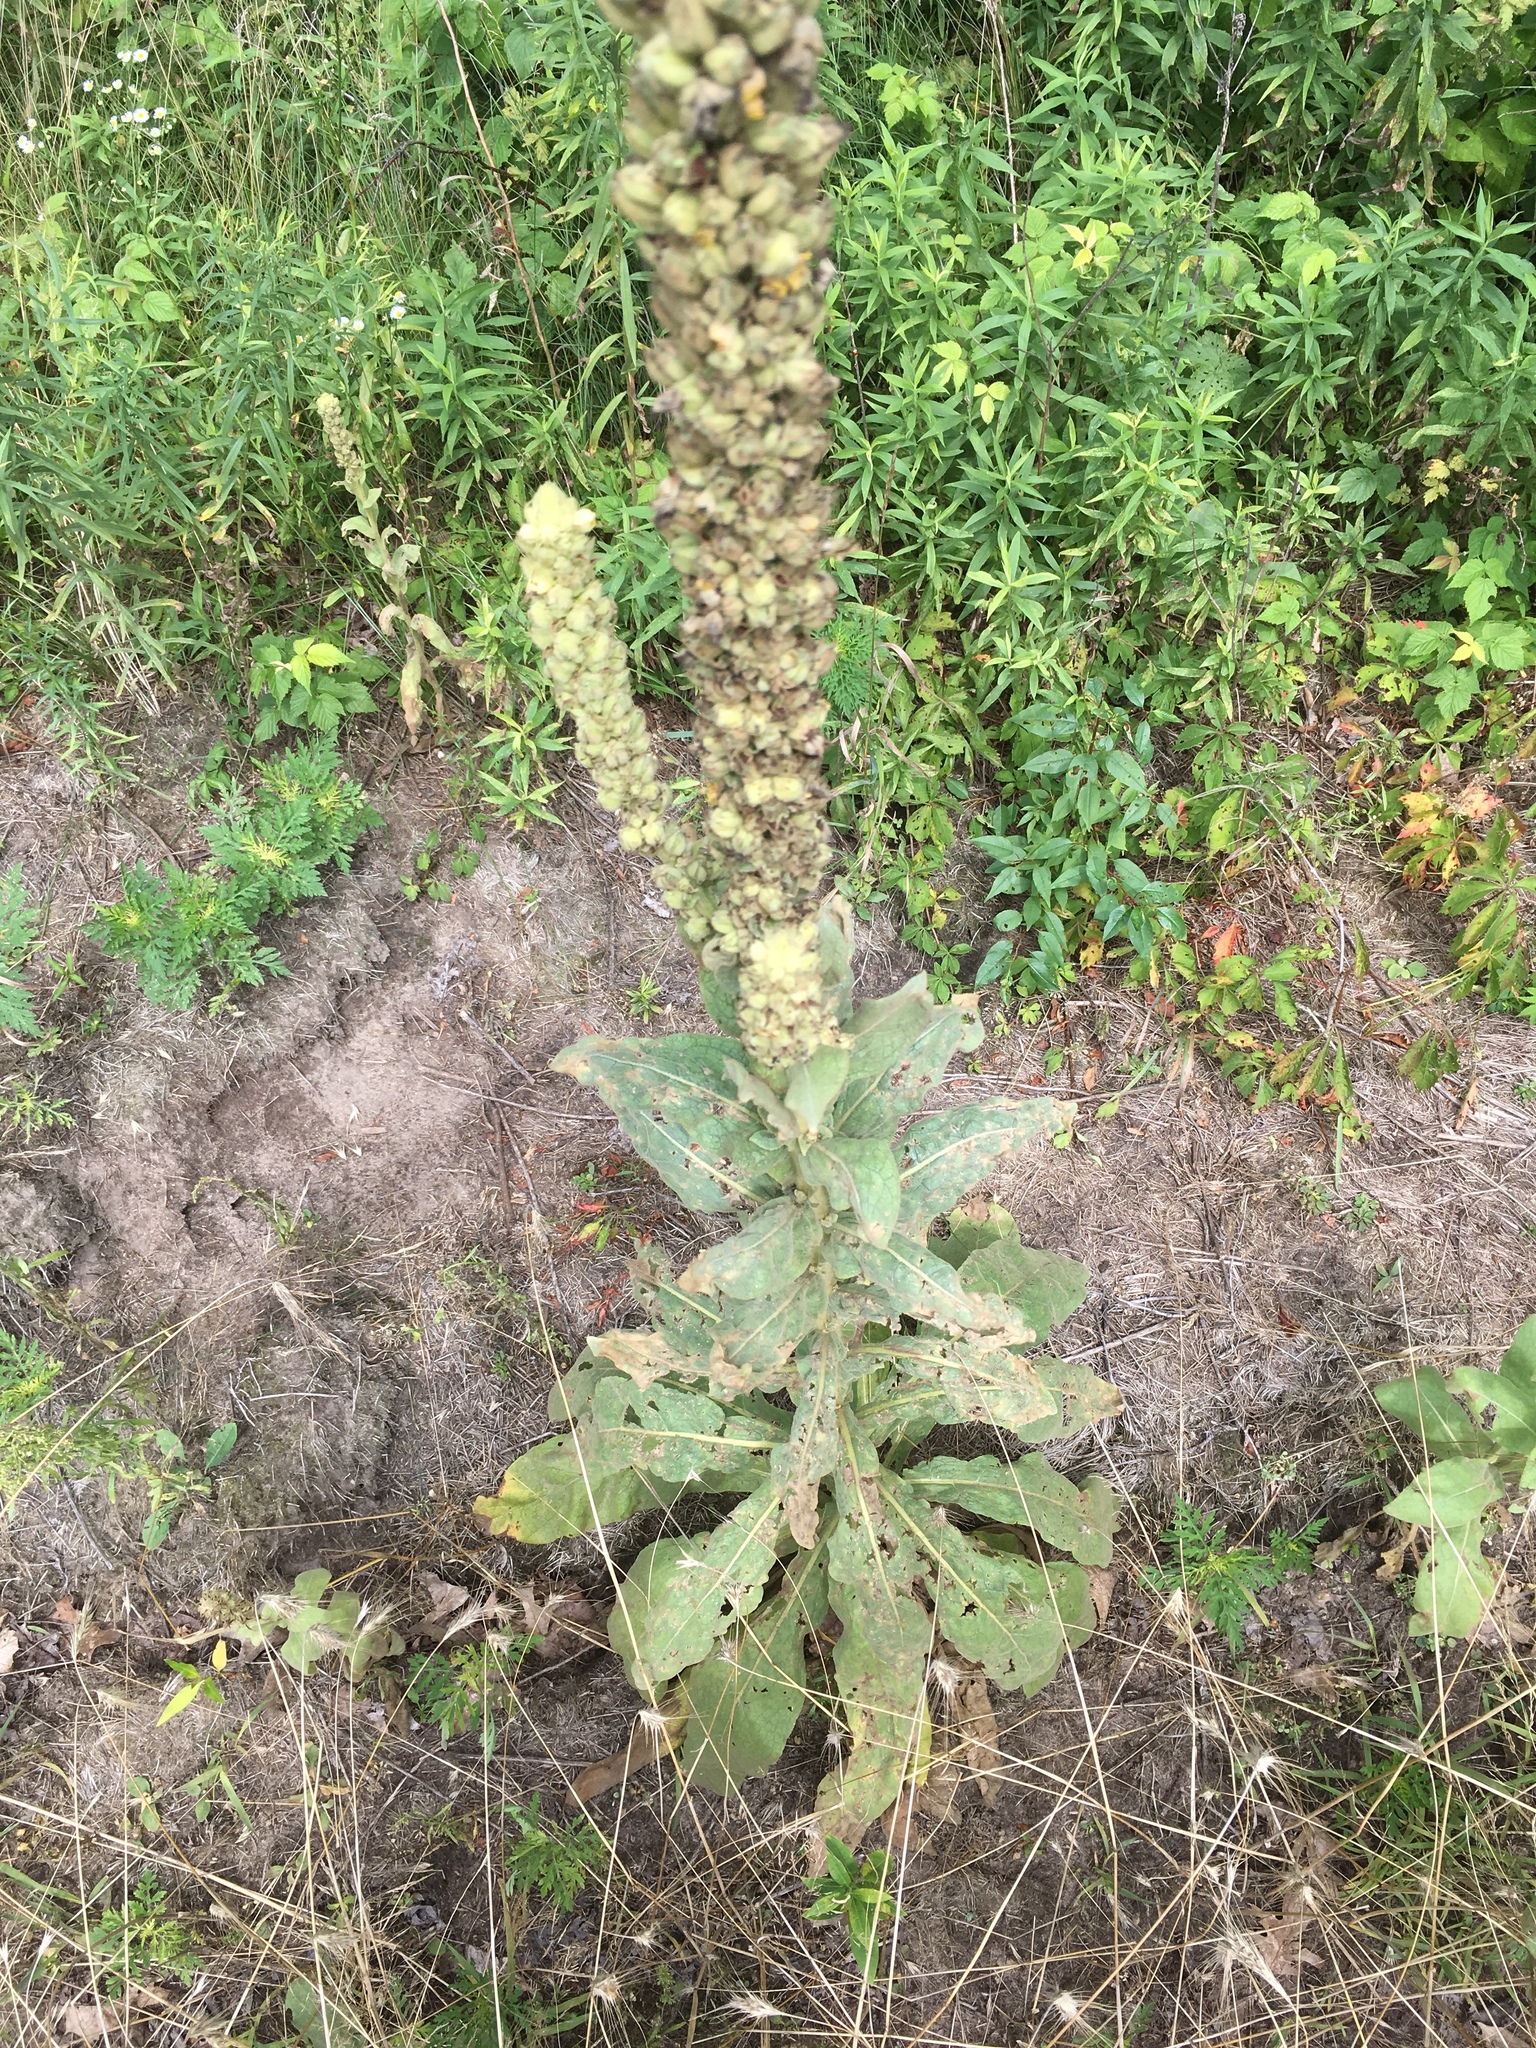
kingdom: Plantae
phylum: Tracheophyta
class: Magnoliopsida
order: Lamiales
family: Scrophulariaceae
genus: Verbascum
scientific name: Verbascum thapsus
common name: Common mullein
